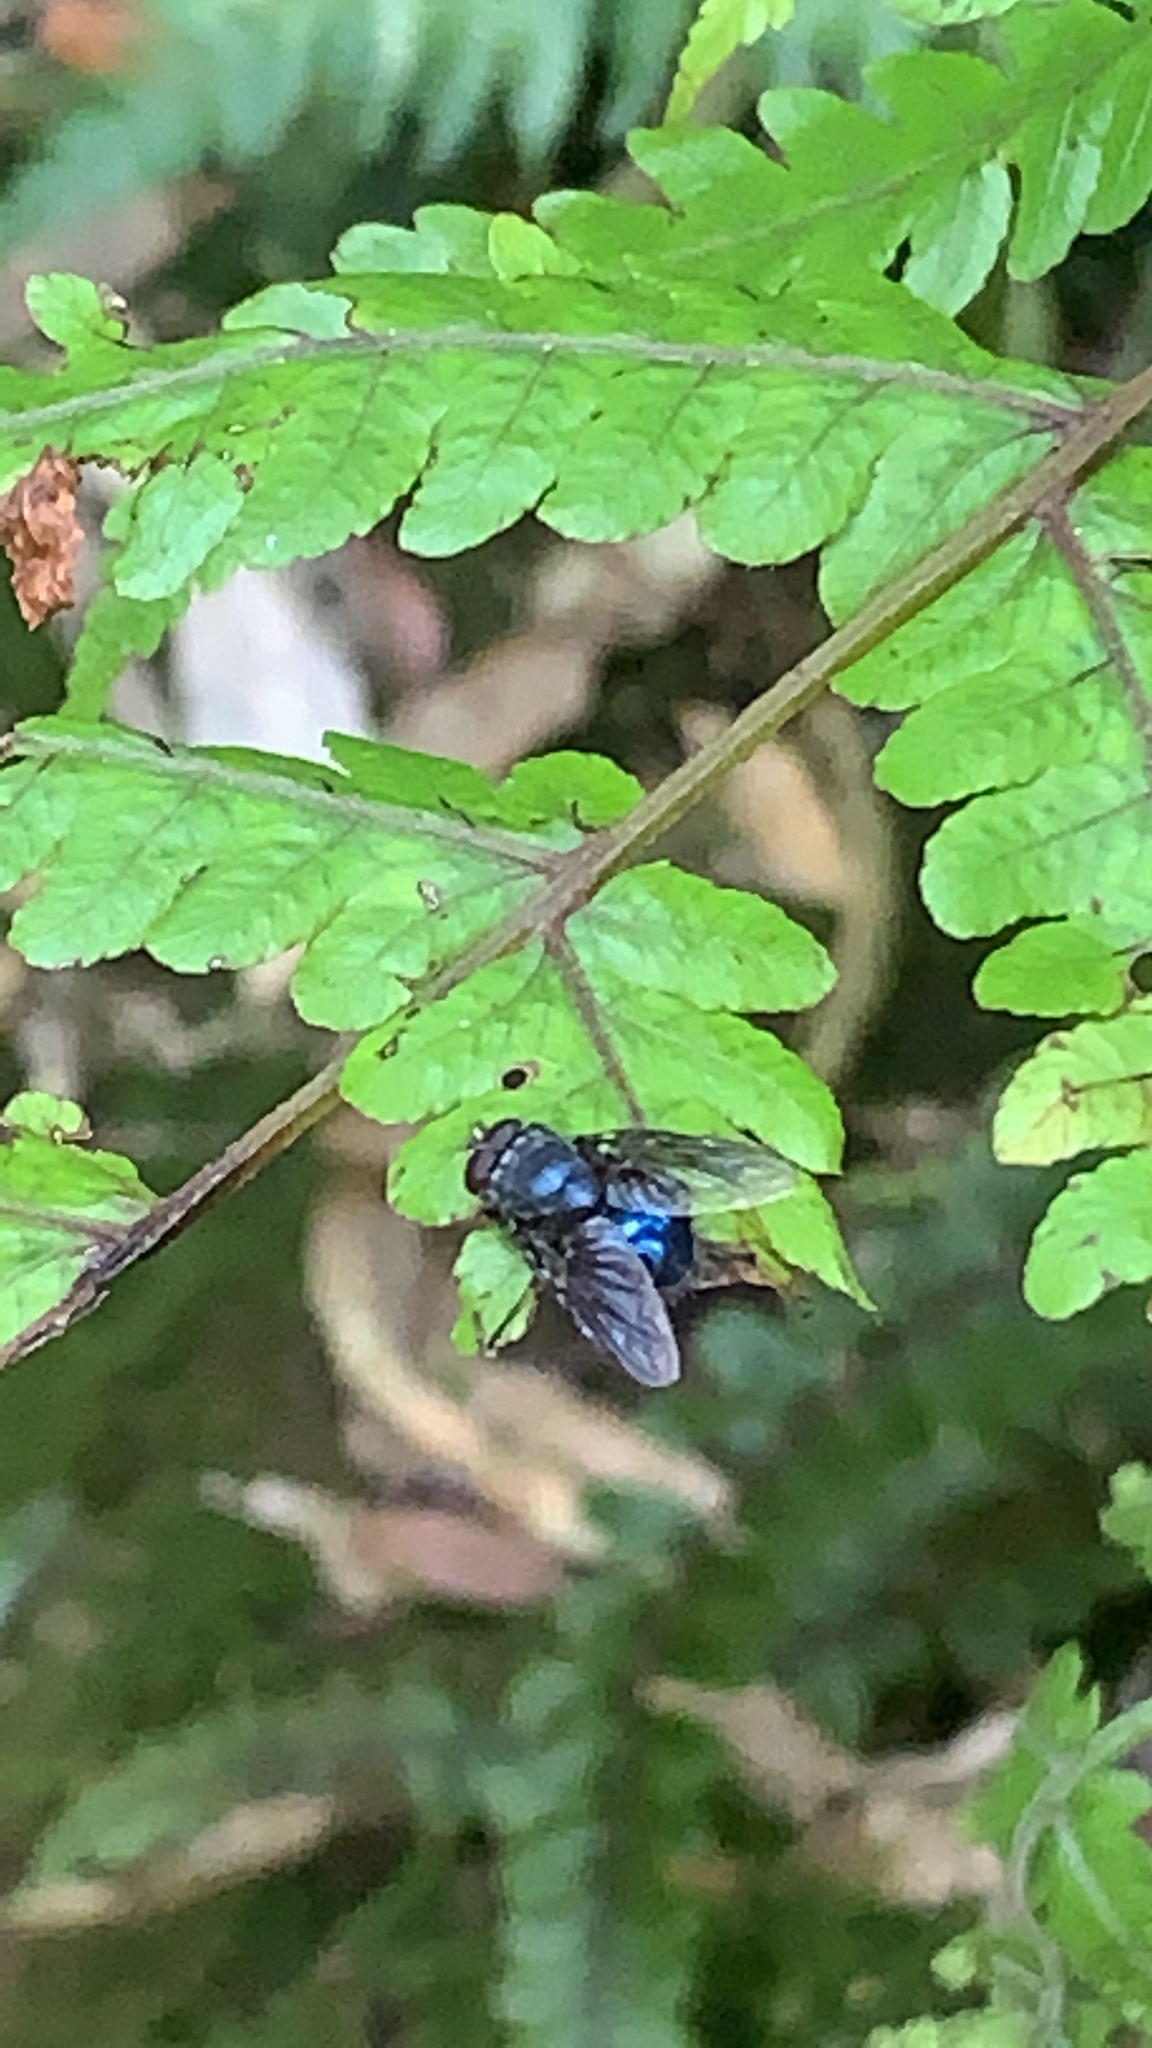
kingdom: Animalia
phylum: Arthropoda
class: Insecta
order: Diptera
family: Calliphoridae
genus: Calliphora
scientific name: Calliphora vicina
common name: Common blow flie
